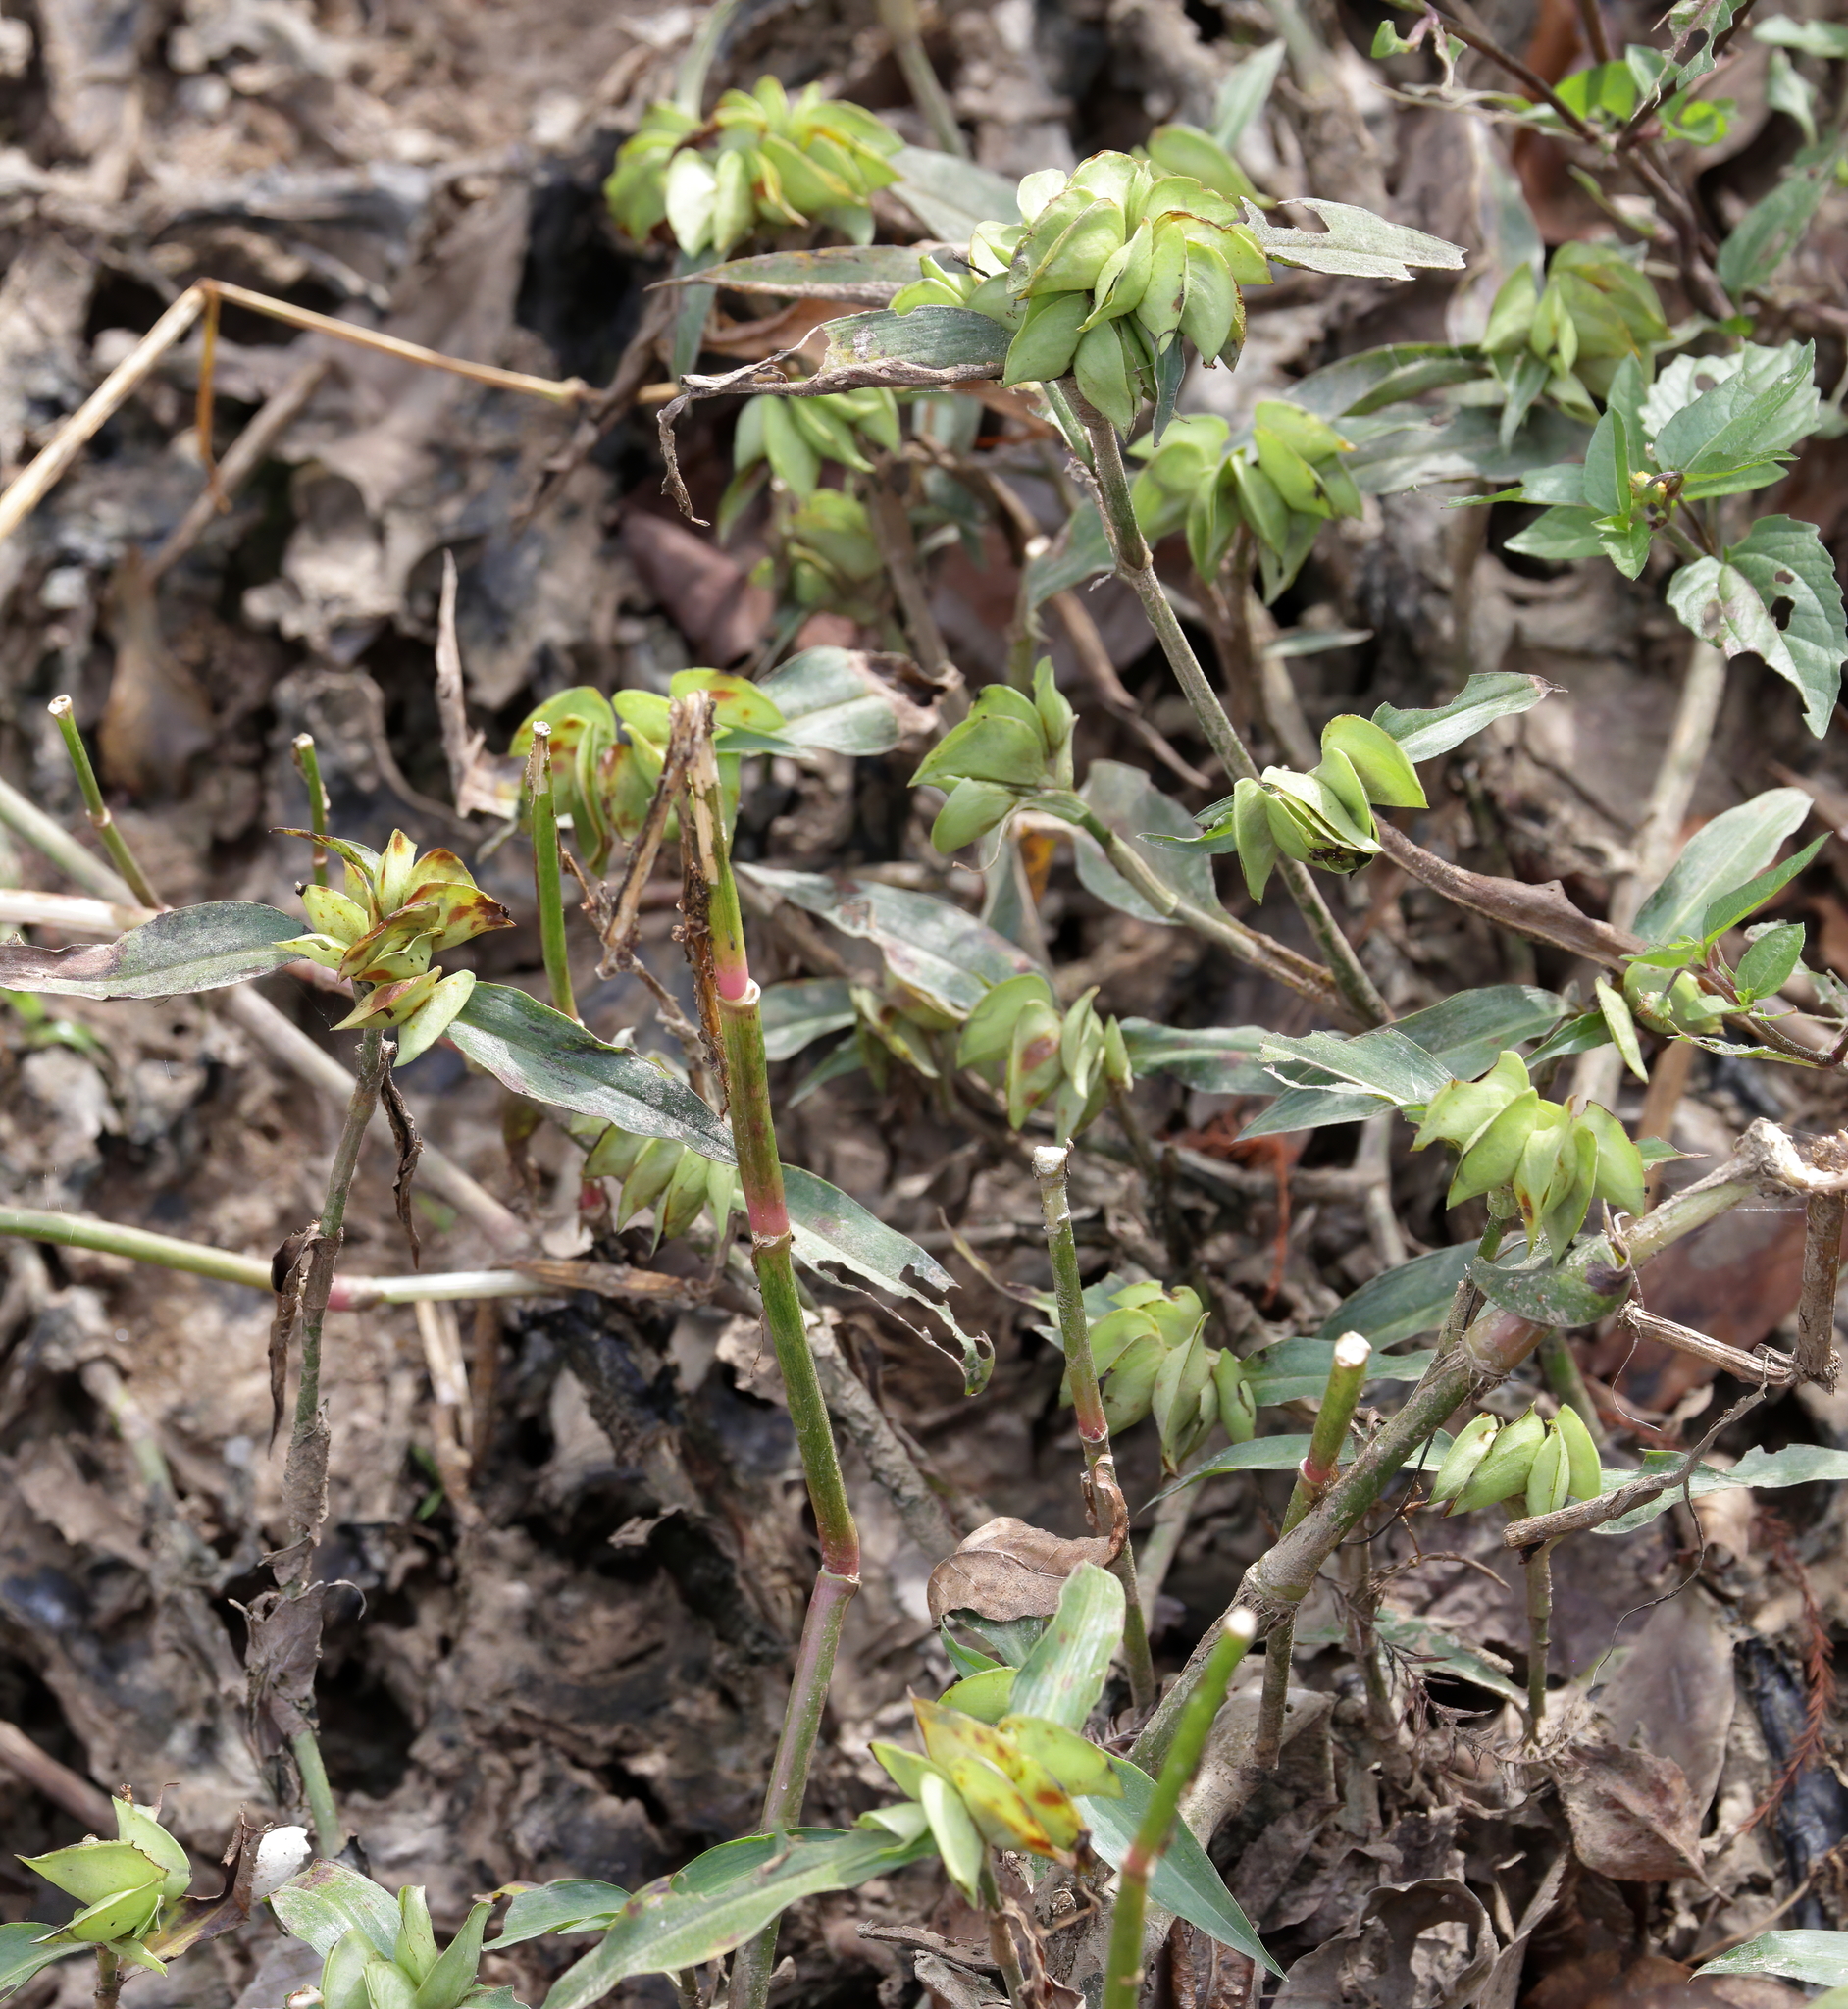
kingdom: Plantae
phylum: Tracheophyta
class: Liliopsida
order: Commelinales
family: Commelinaceae
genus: Commelina
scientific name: Commelina virginica
